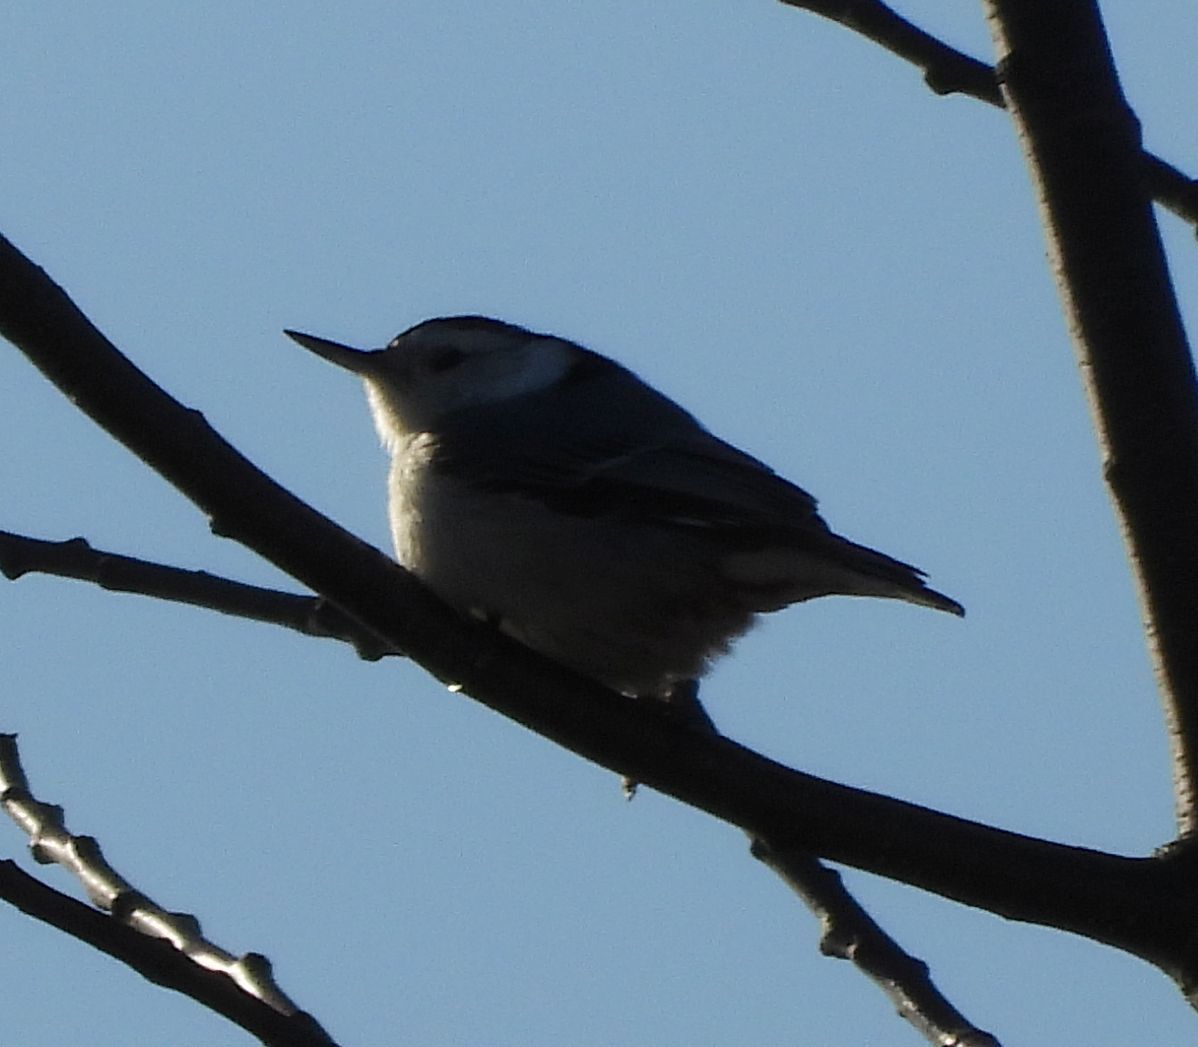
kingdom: Animalia
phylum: Chordata
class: Aves
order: Passeriformes
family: Sittidae
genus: Sitta
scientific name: Sitta carolinensis
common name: White-breasted nuthatch
